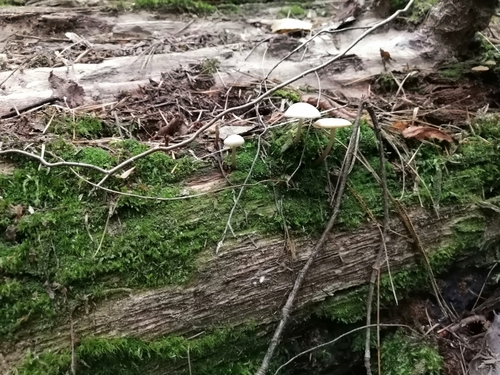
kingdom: Fungi
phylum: Basidiomycota
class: Agaricomycetes
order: Agaricales
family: Marasmiaceae
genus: Marasmius
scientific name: Marasmius wynneae
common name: Pearly parachute
